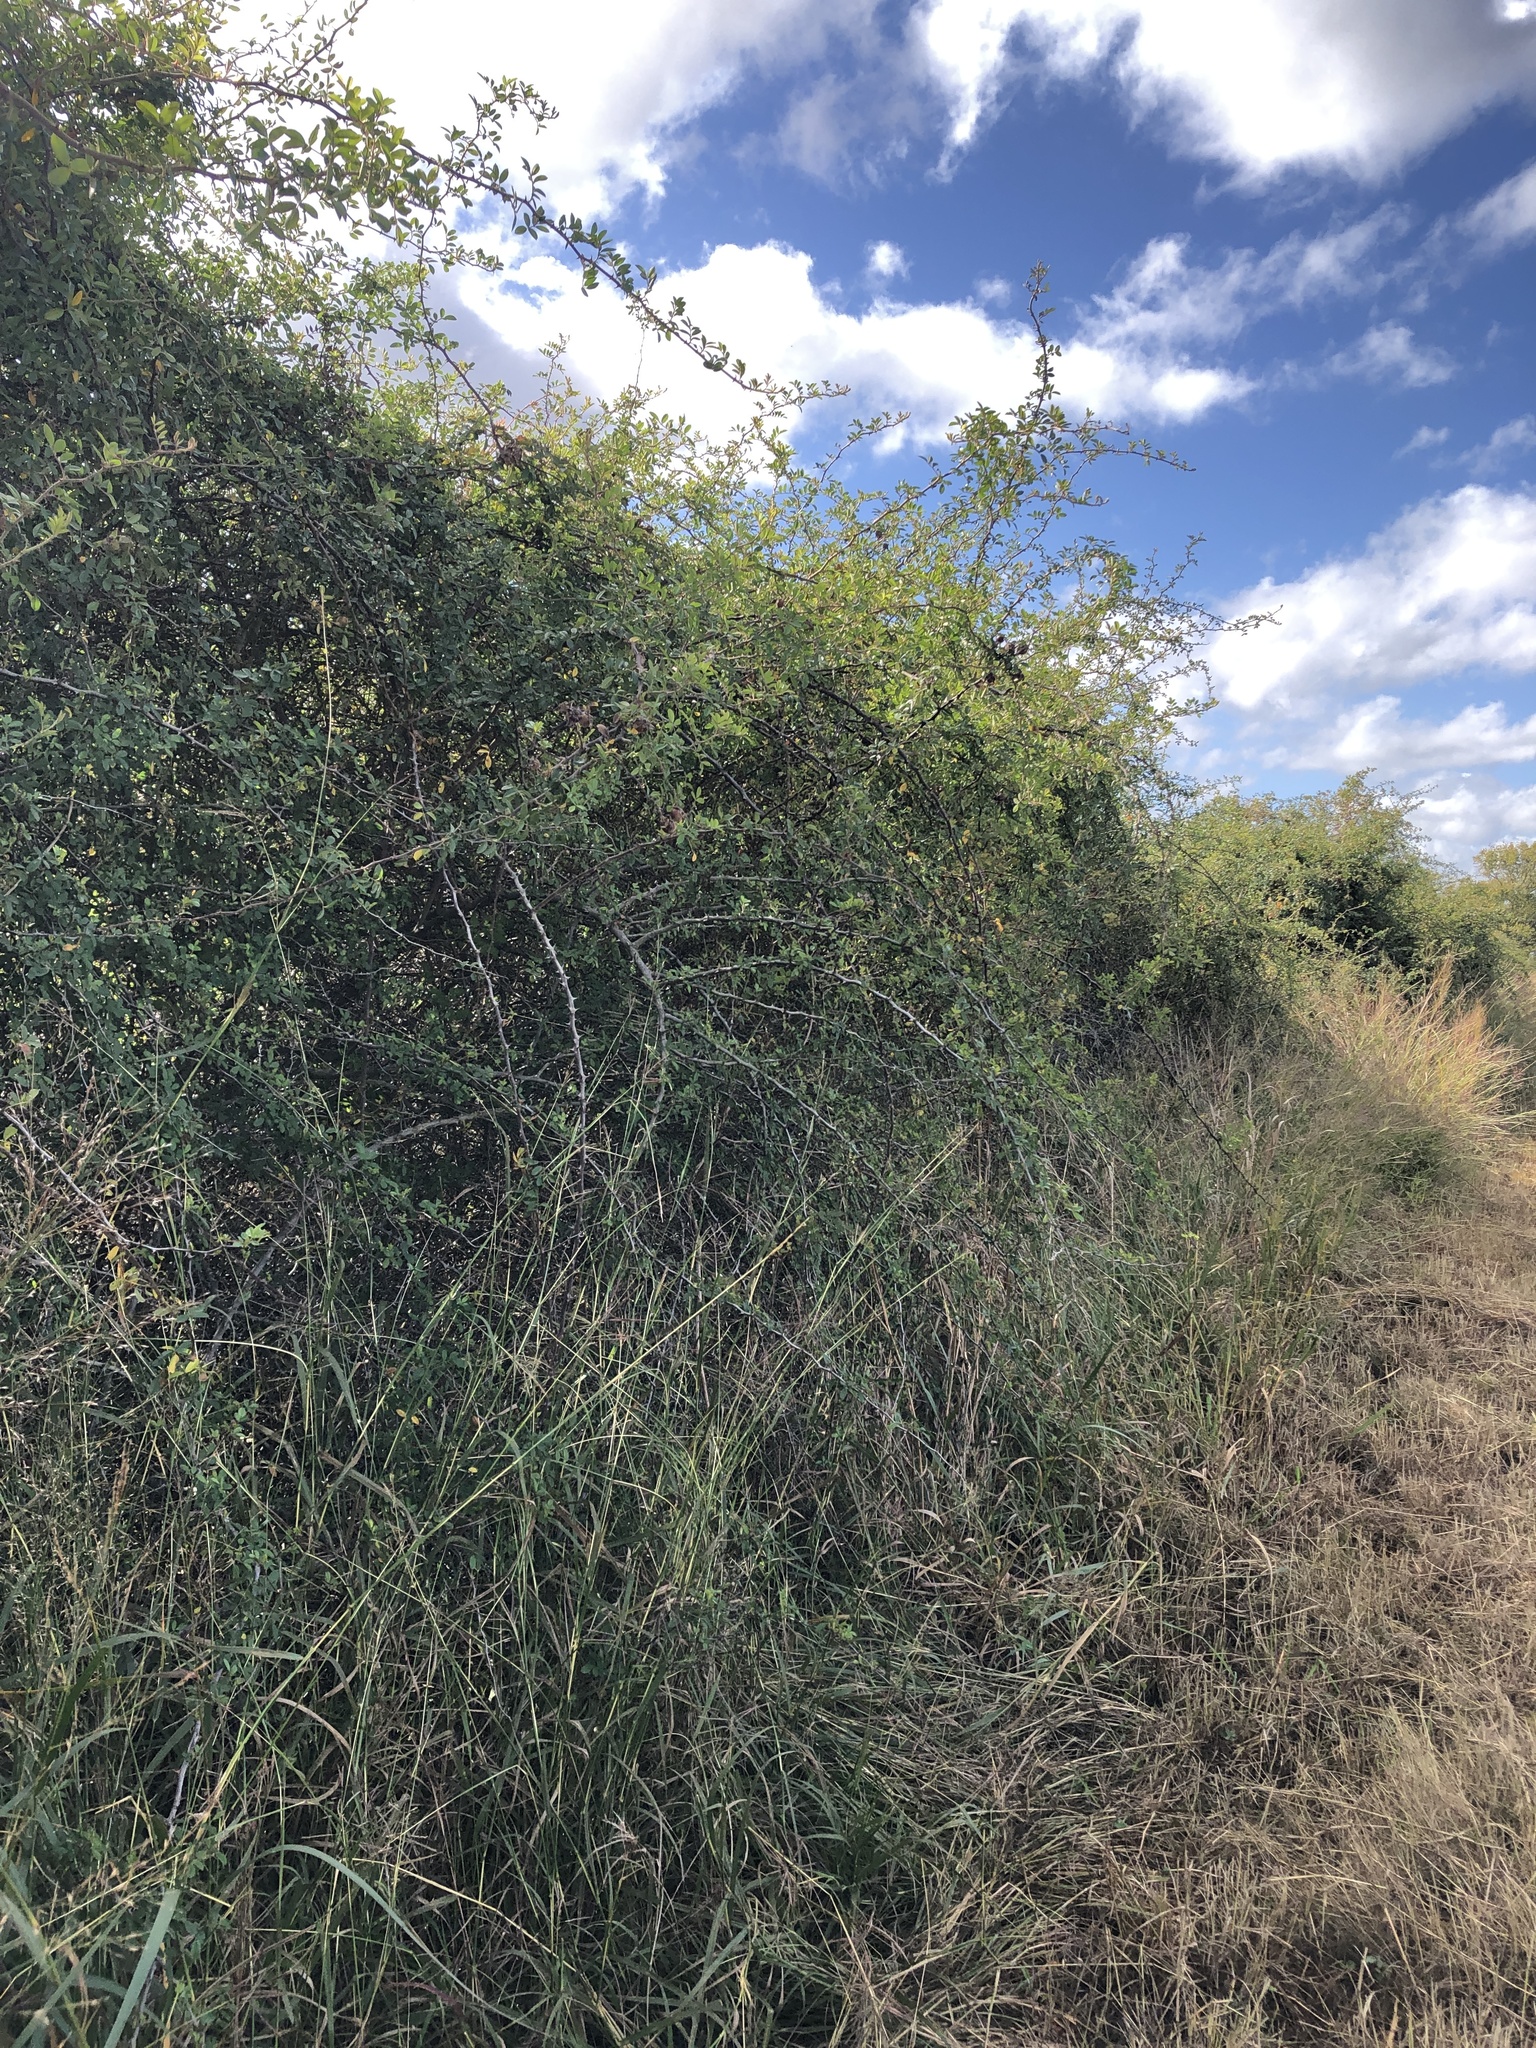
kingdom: Plantae
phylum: Tracheophyta
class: Magnoliopsida
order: Rosales
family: Rosaceae
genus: Rosa
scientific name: Rosa bracteata
